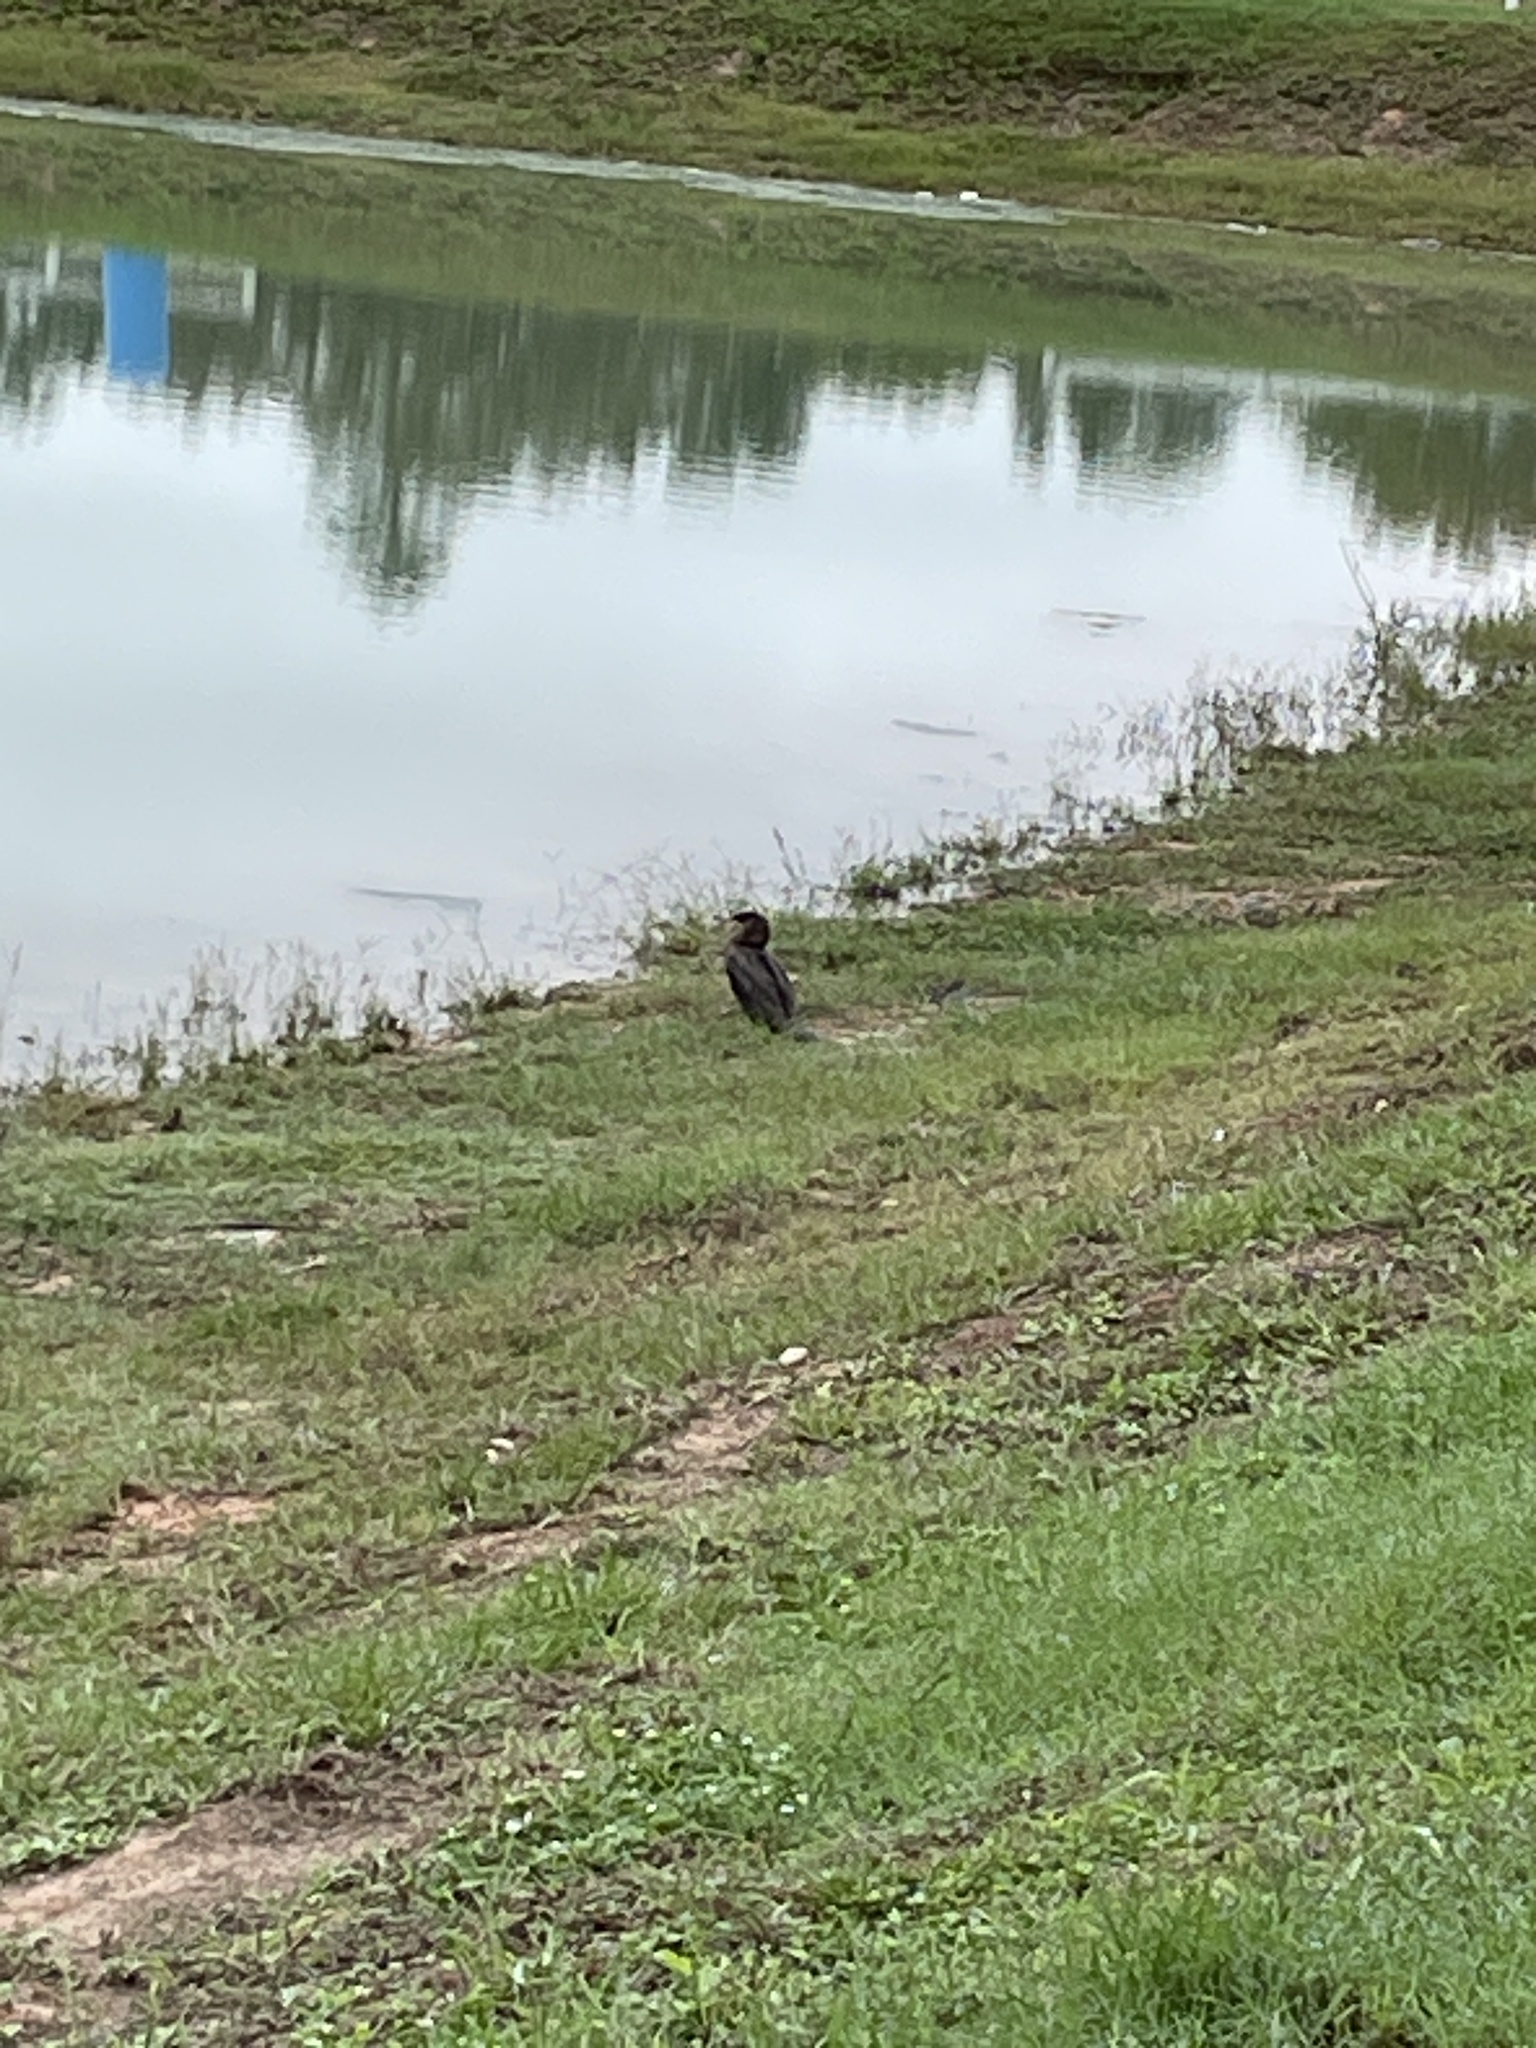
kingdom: Animalia
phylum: Chordata
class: Aves
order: Suliformes
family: Phalacrocoracidae
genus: Phalacrocorax
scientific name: Phalacrocorax brasilianus
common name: Neotropic cormorant
